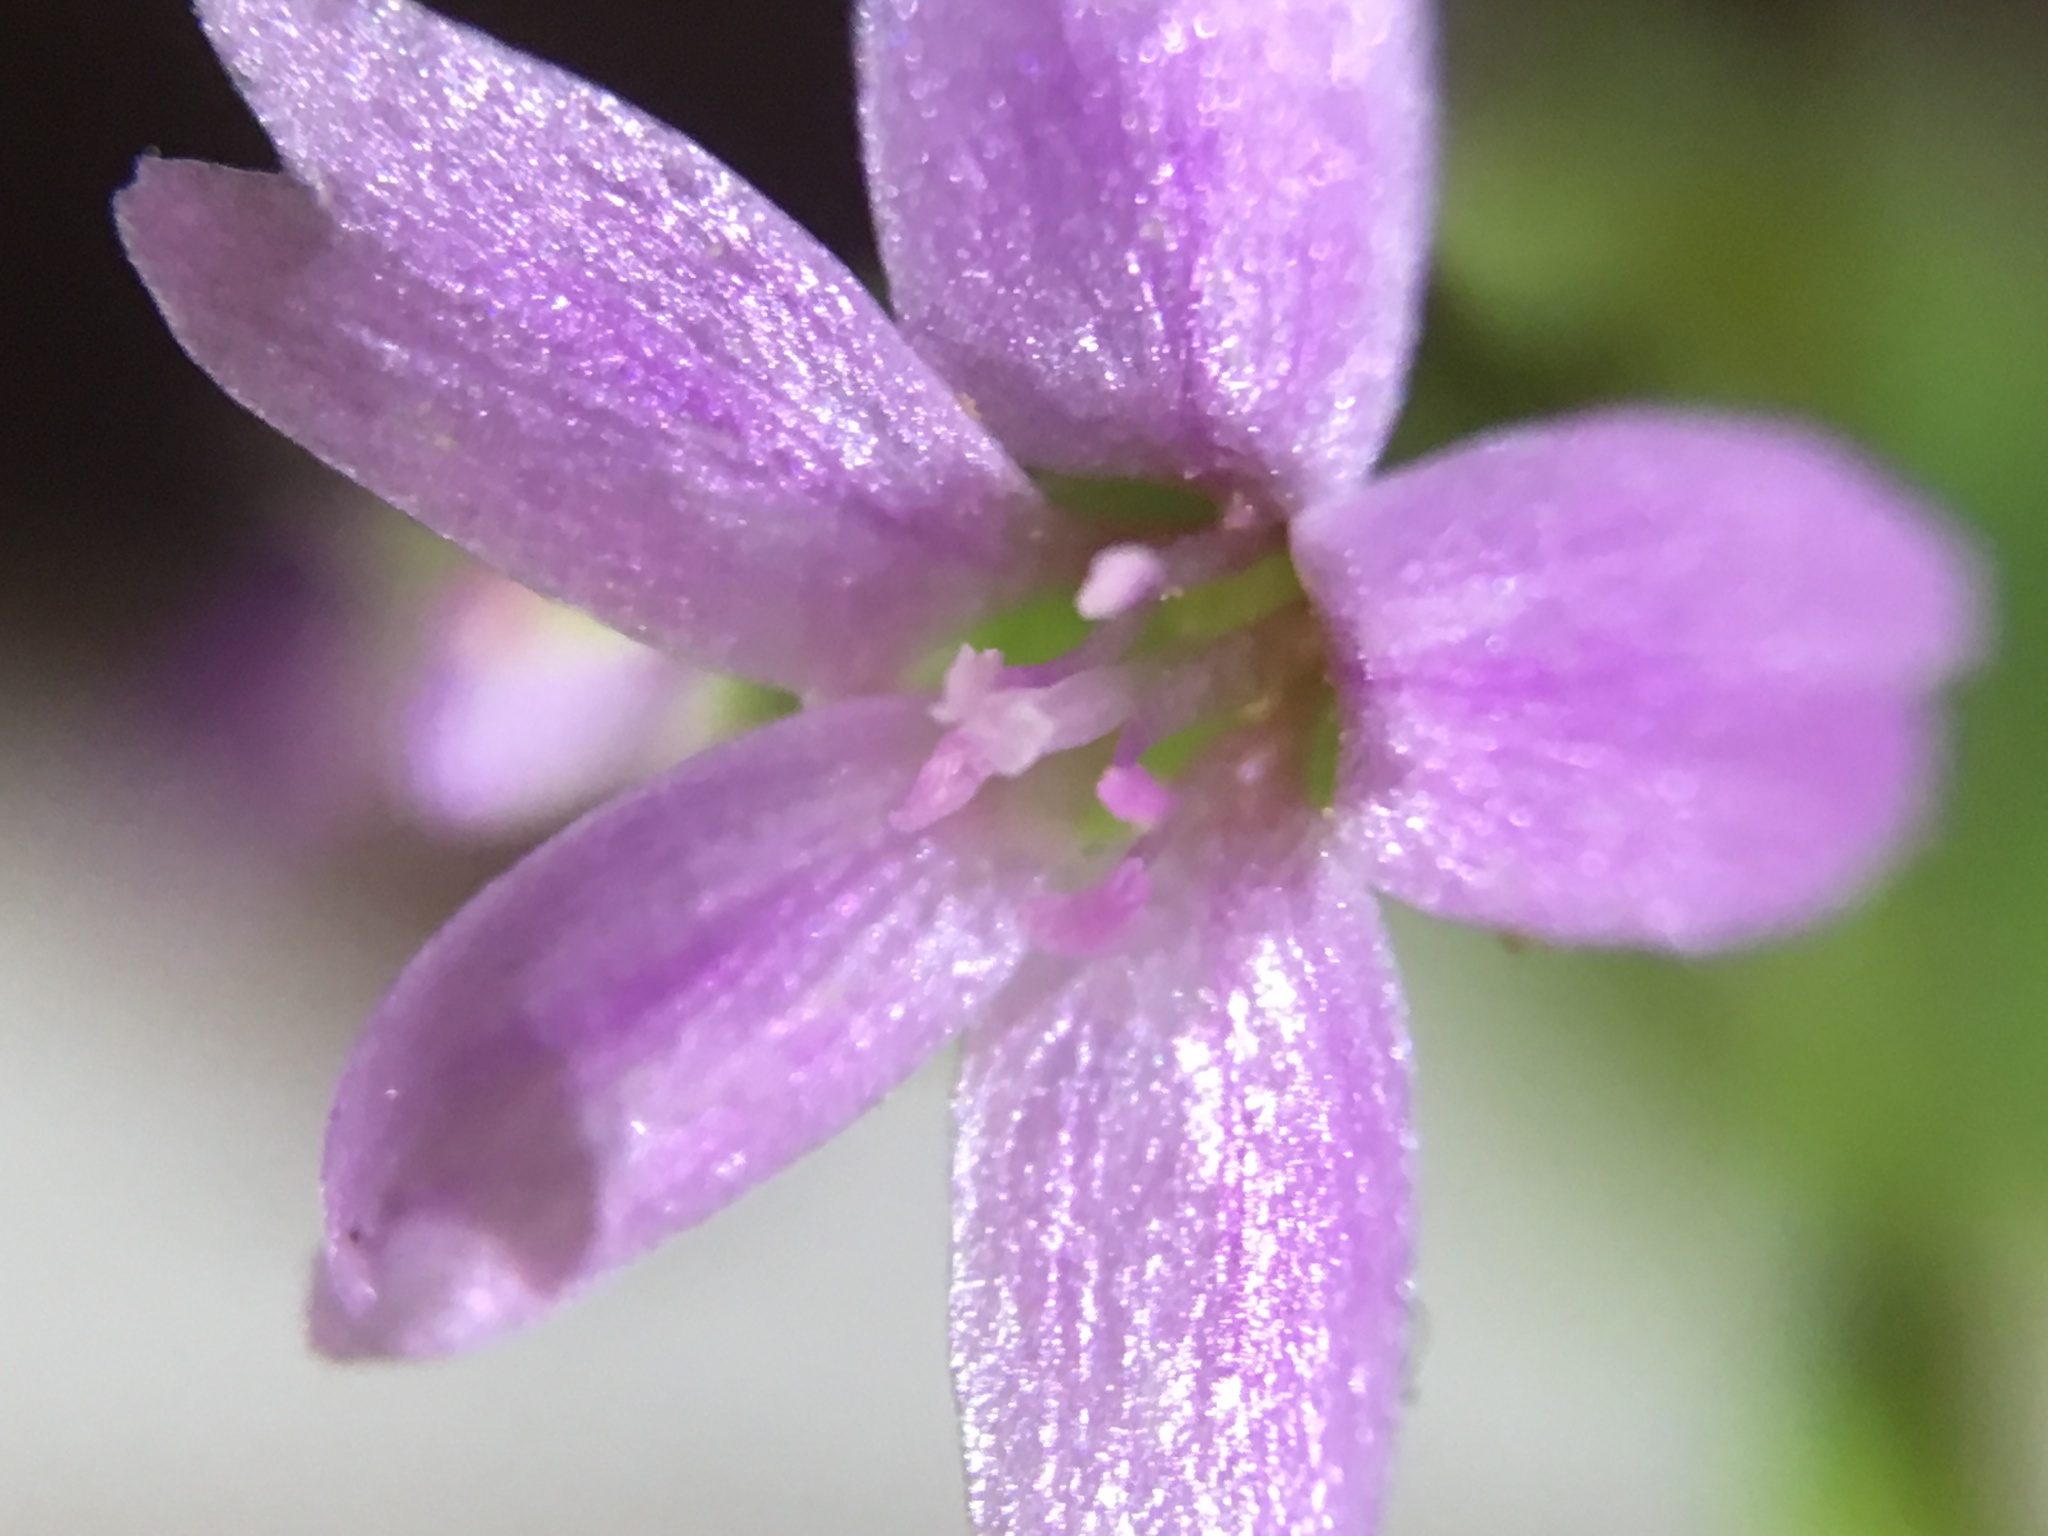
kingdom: Plantae
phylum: Tracheophyta
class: Magnoliopsida
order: Caryophyllales
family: Montiaceae
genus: Claytonia
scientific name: Claytonia parviflora
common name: Indian-lettuce
